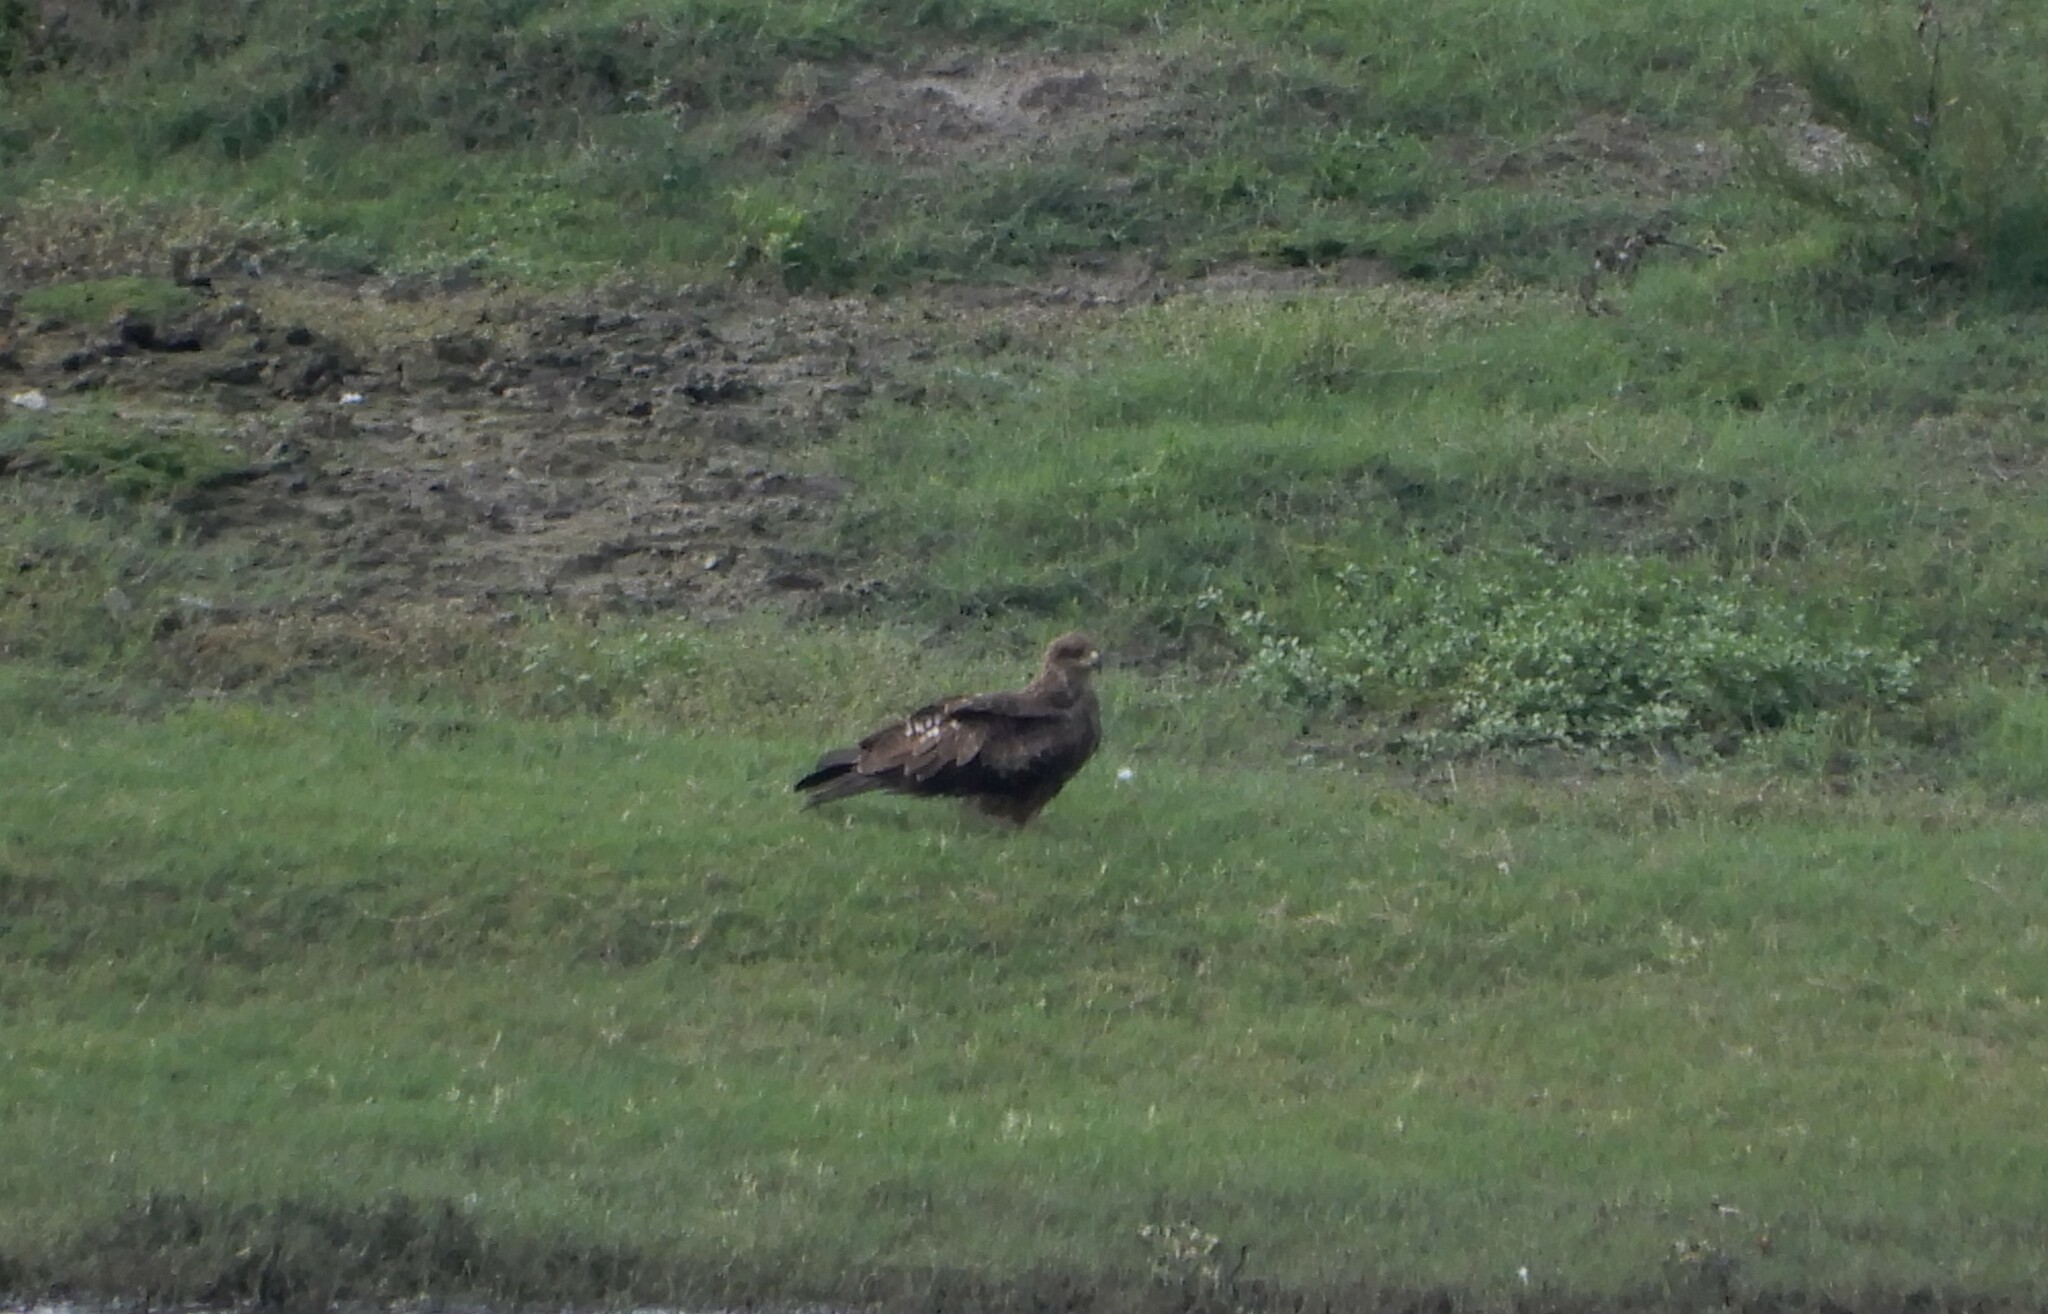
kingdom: Animalia
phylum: Chordata
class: Aves
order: Accipitriformes
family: Accipitridae
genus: Milvus
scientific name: Milvus migrans
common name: Black kite
